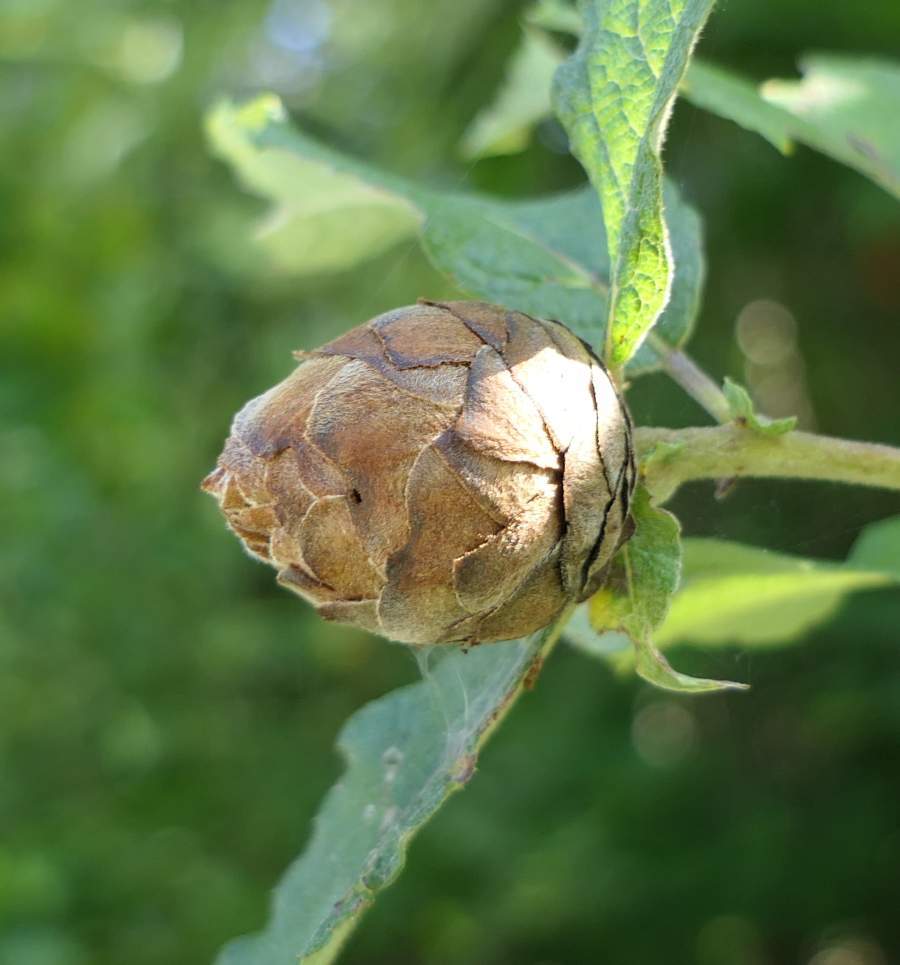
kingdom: Animalia
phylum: Arthropoda
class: Insecta
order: Diptera
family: Cecidomyiidae
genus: Rabdophaga
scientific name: Rabdophaga strobiloides
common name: Willow pinecone gall midge
